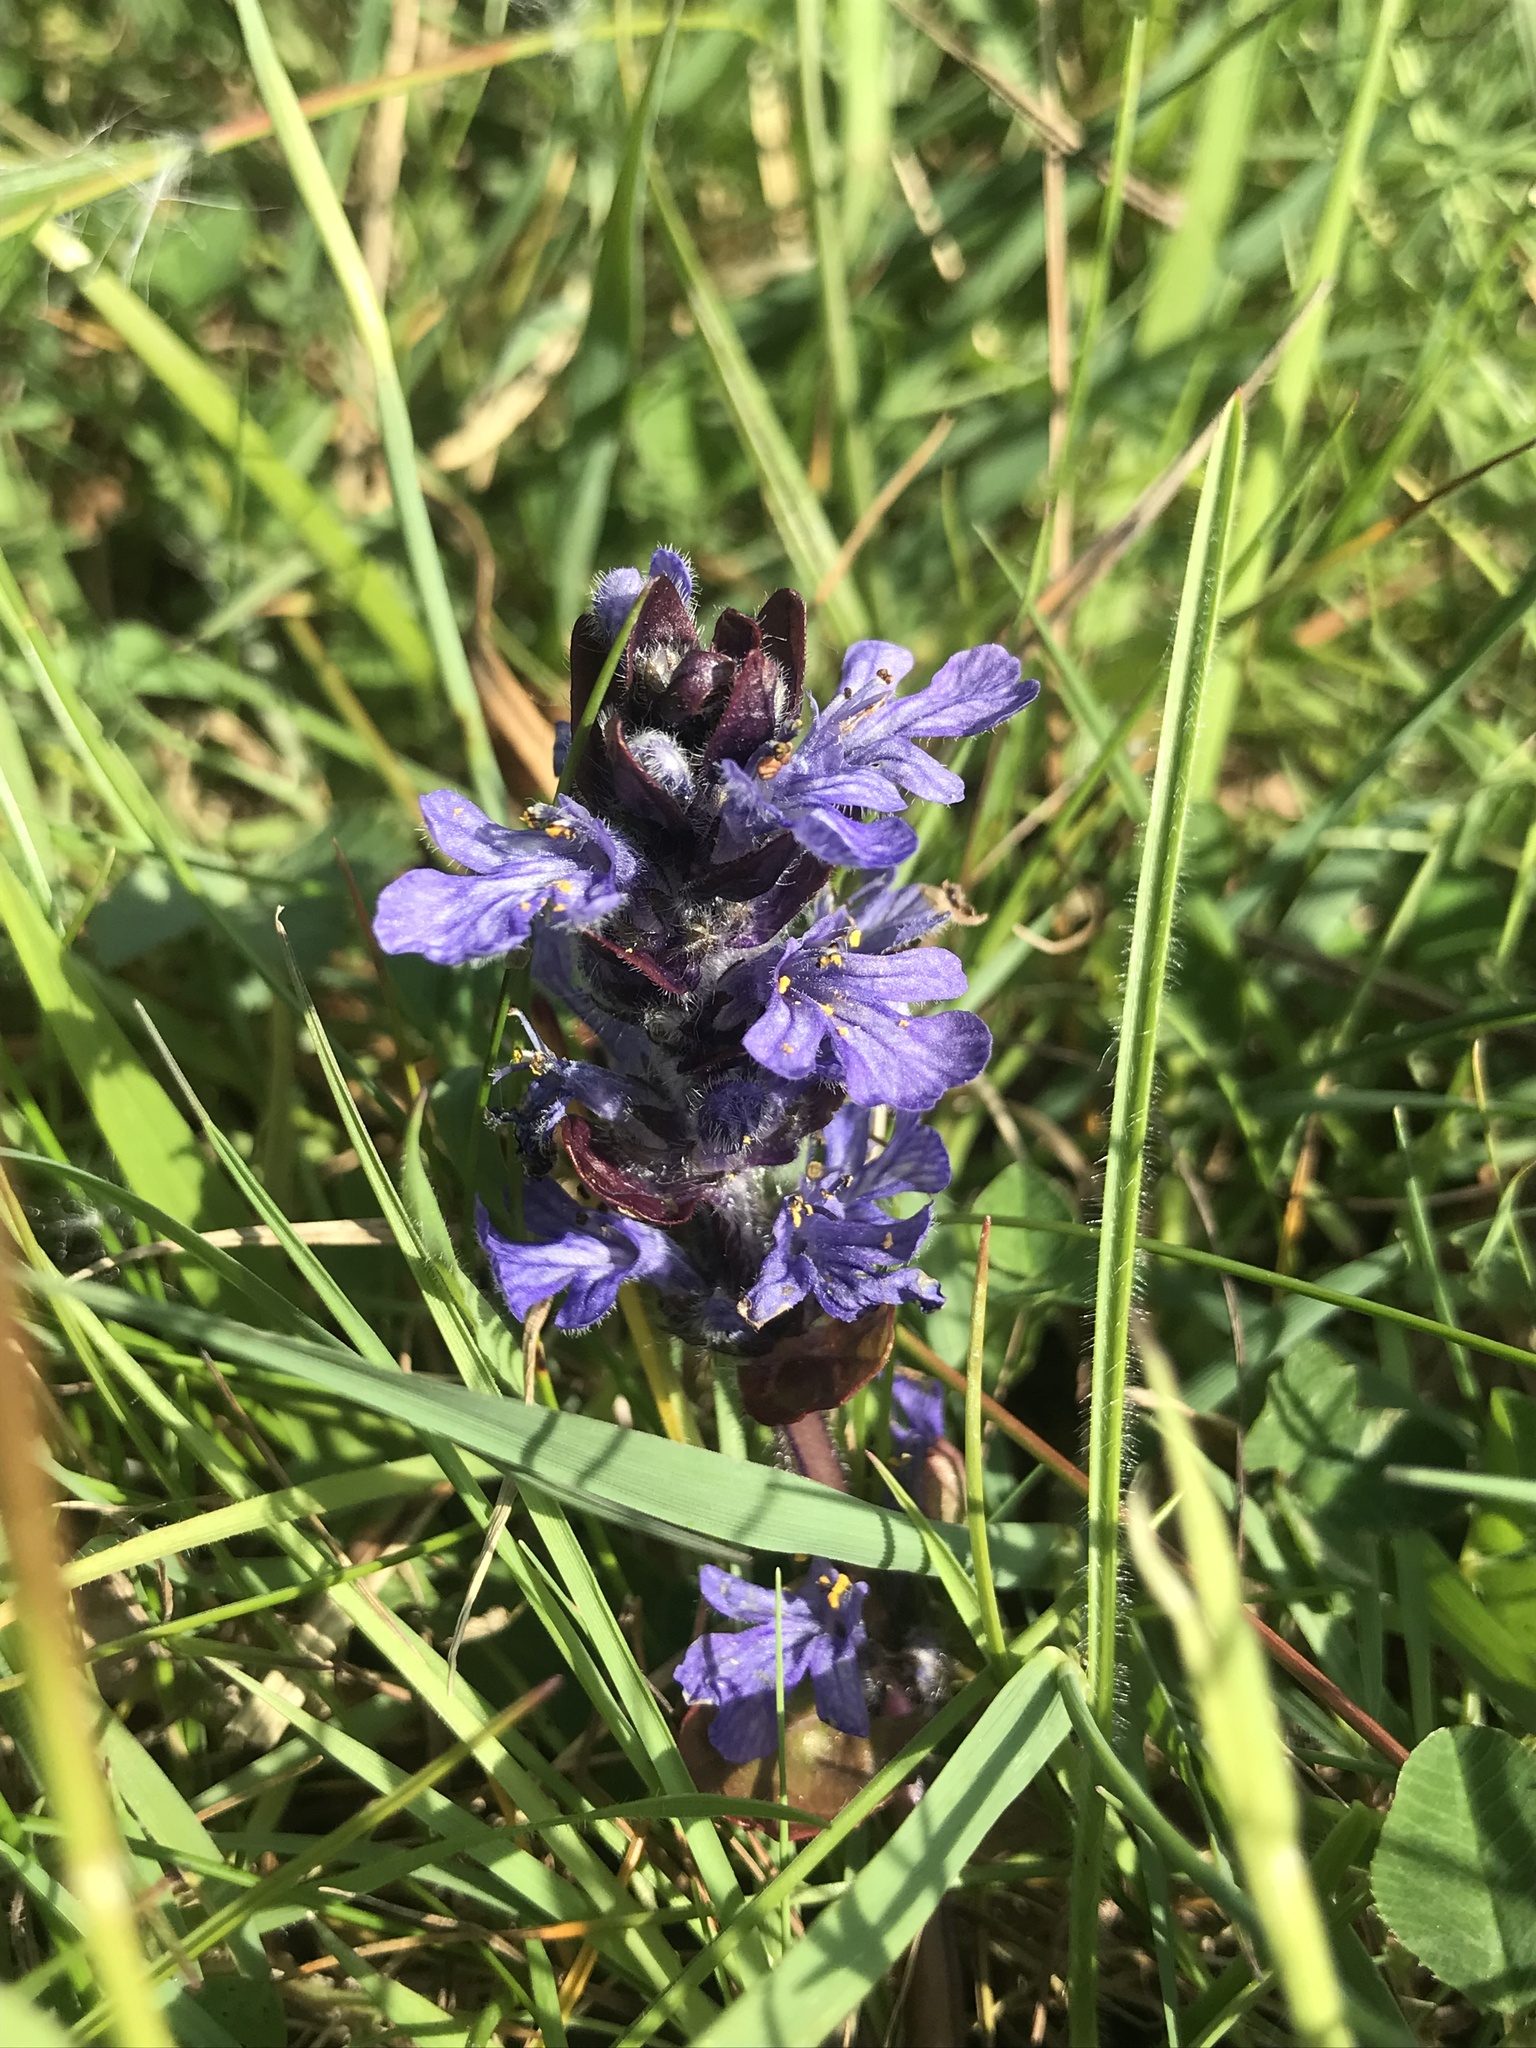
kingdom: Plantae
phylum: Tracheophyta
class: Magnoliopsida
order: Lamiales
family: Lamiaceae
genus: Ajuga
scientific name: Ajuga reptans
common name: Bugle
